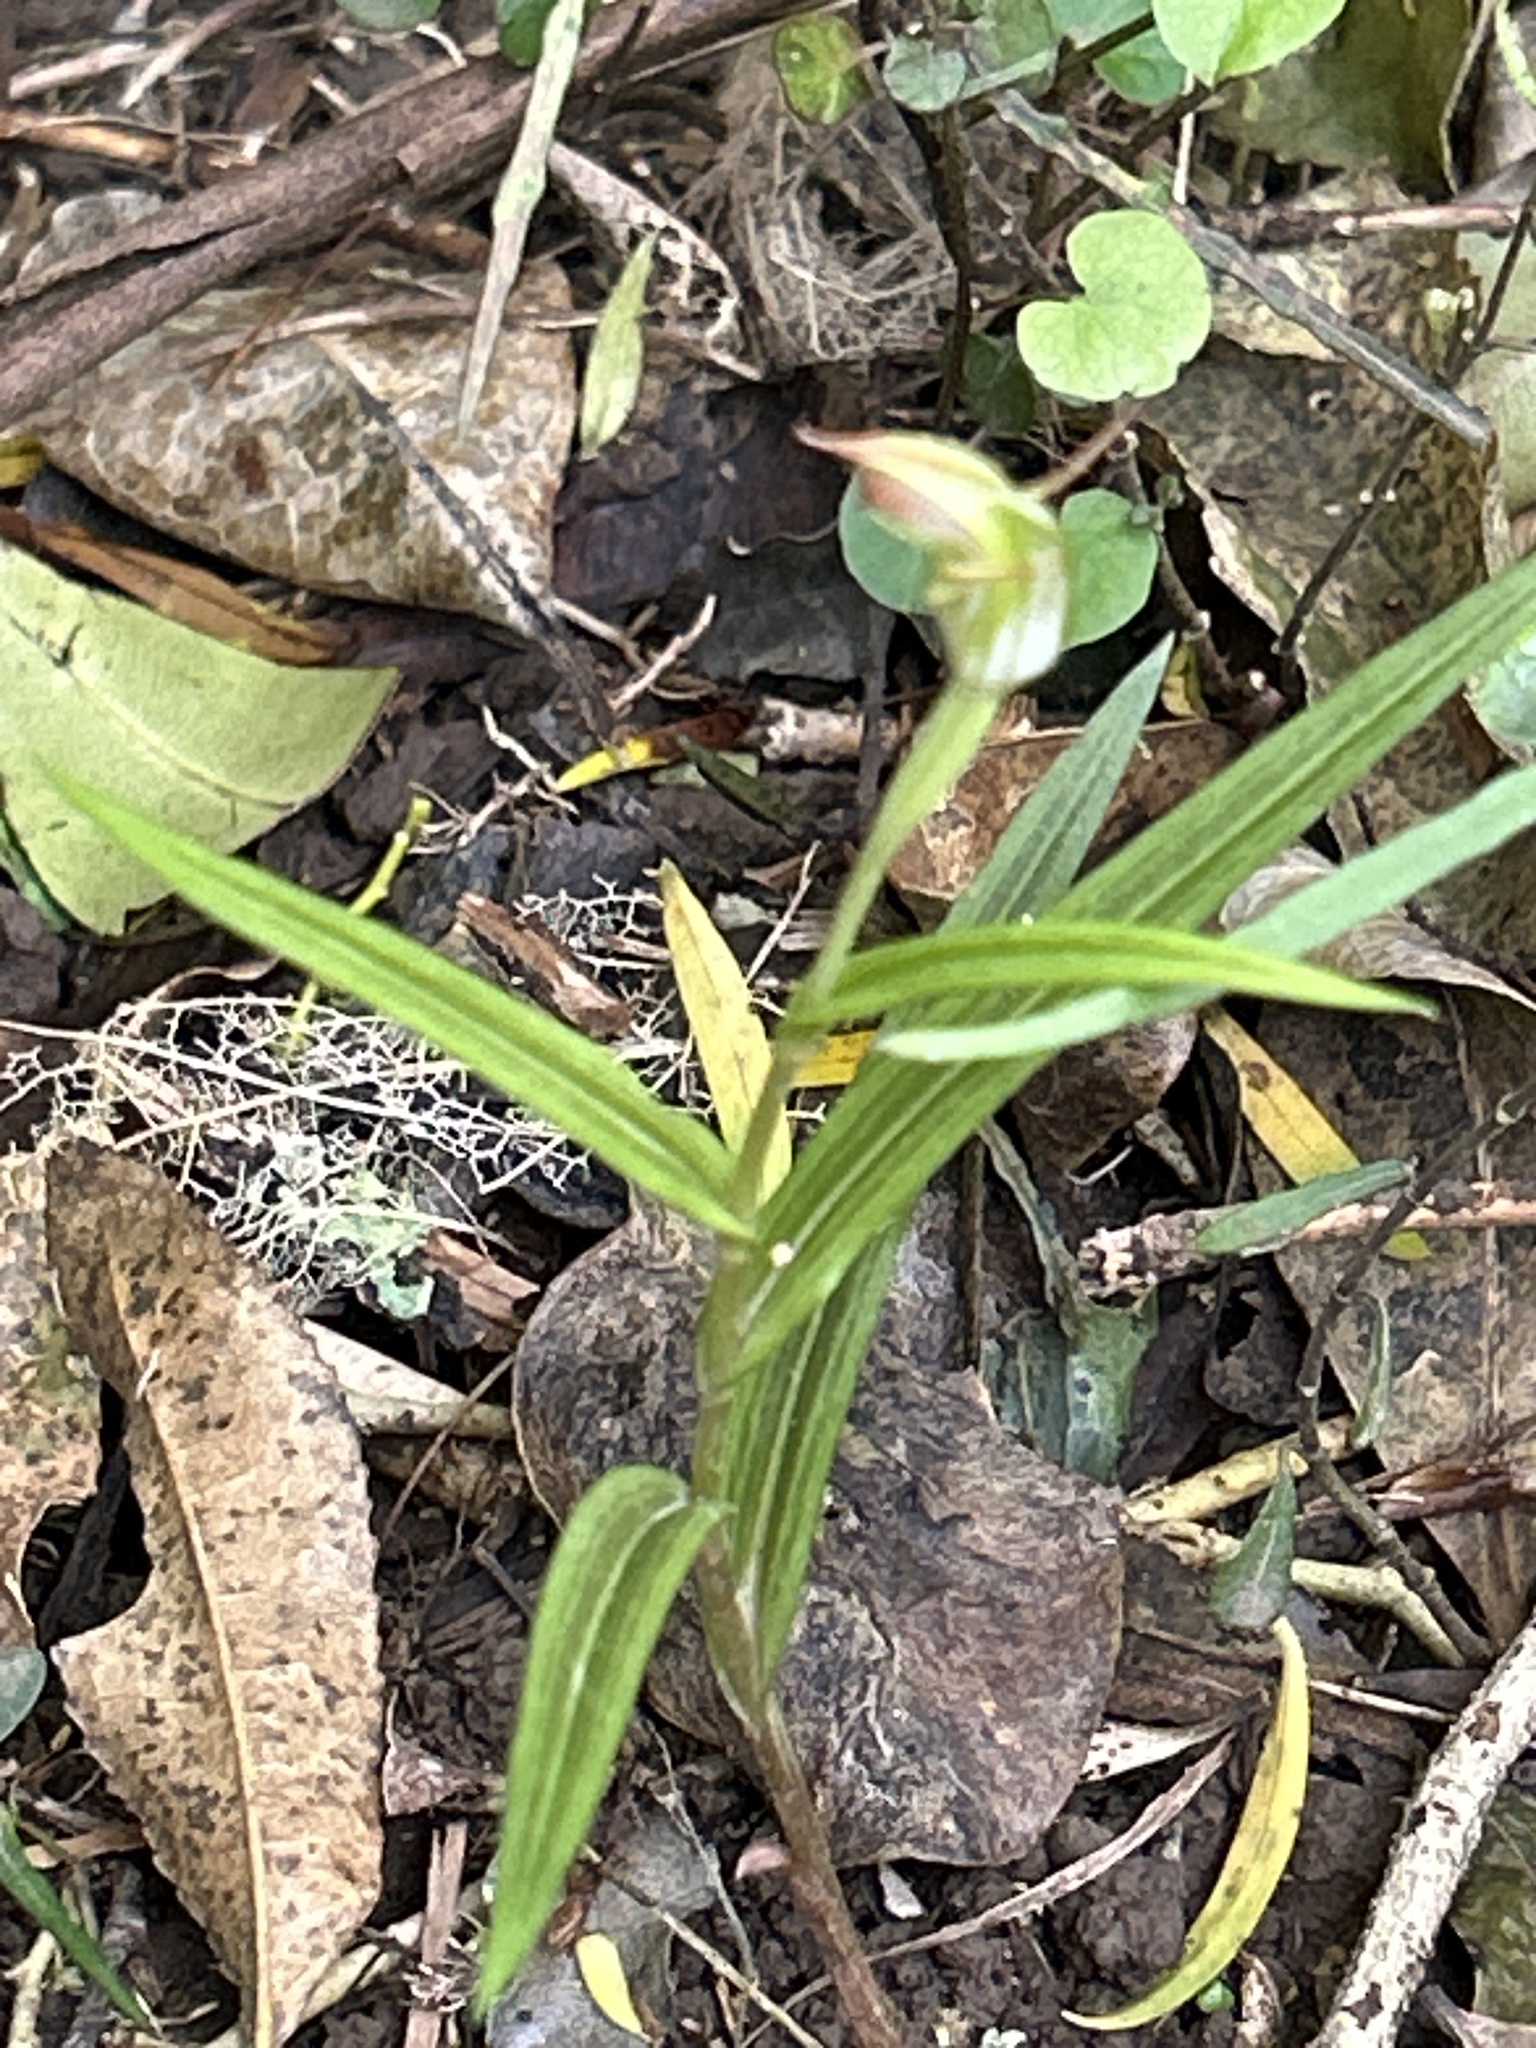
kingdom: Plantae
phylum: Tracheophyta
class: Liliopsida
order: Asparagales
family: Orchidaceae
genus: Pterostylis
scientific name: Pterostylis graminea
